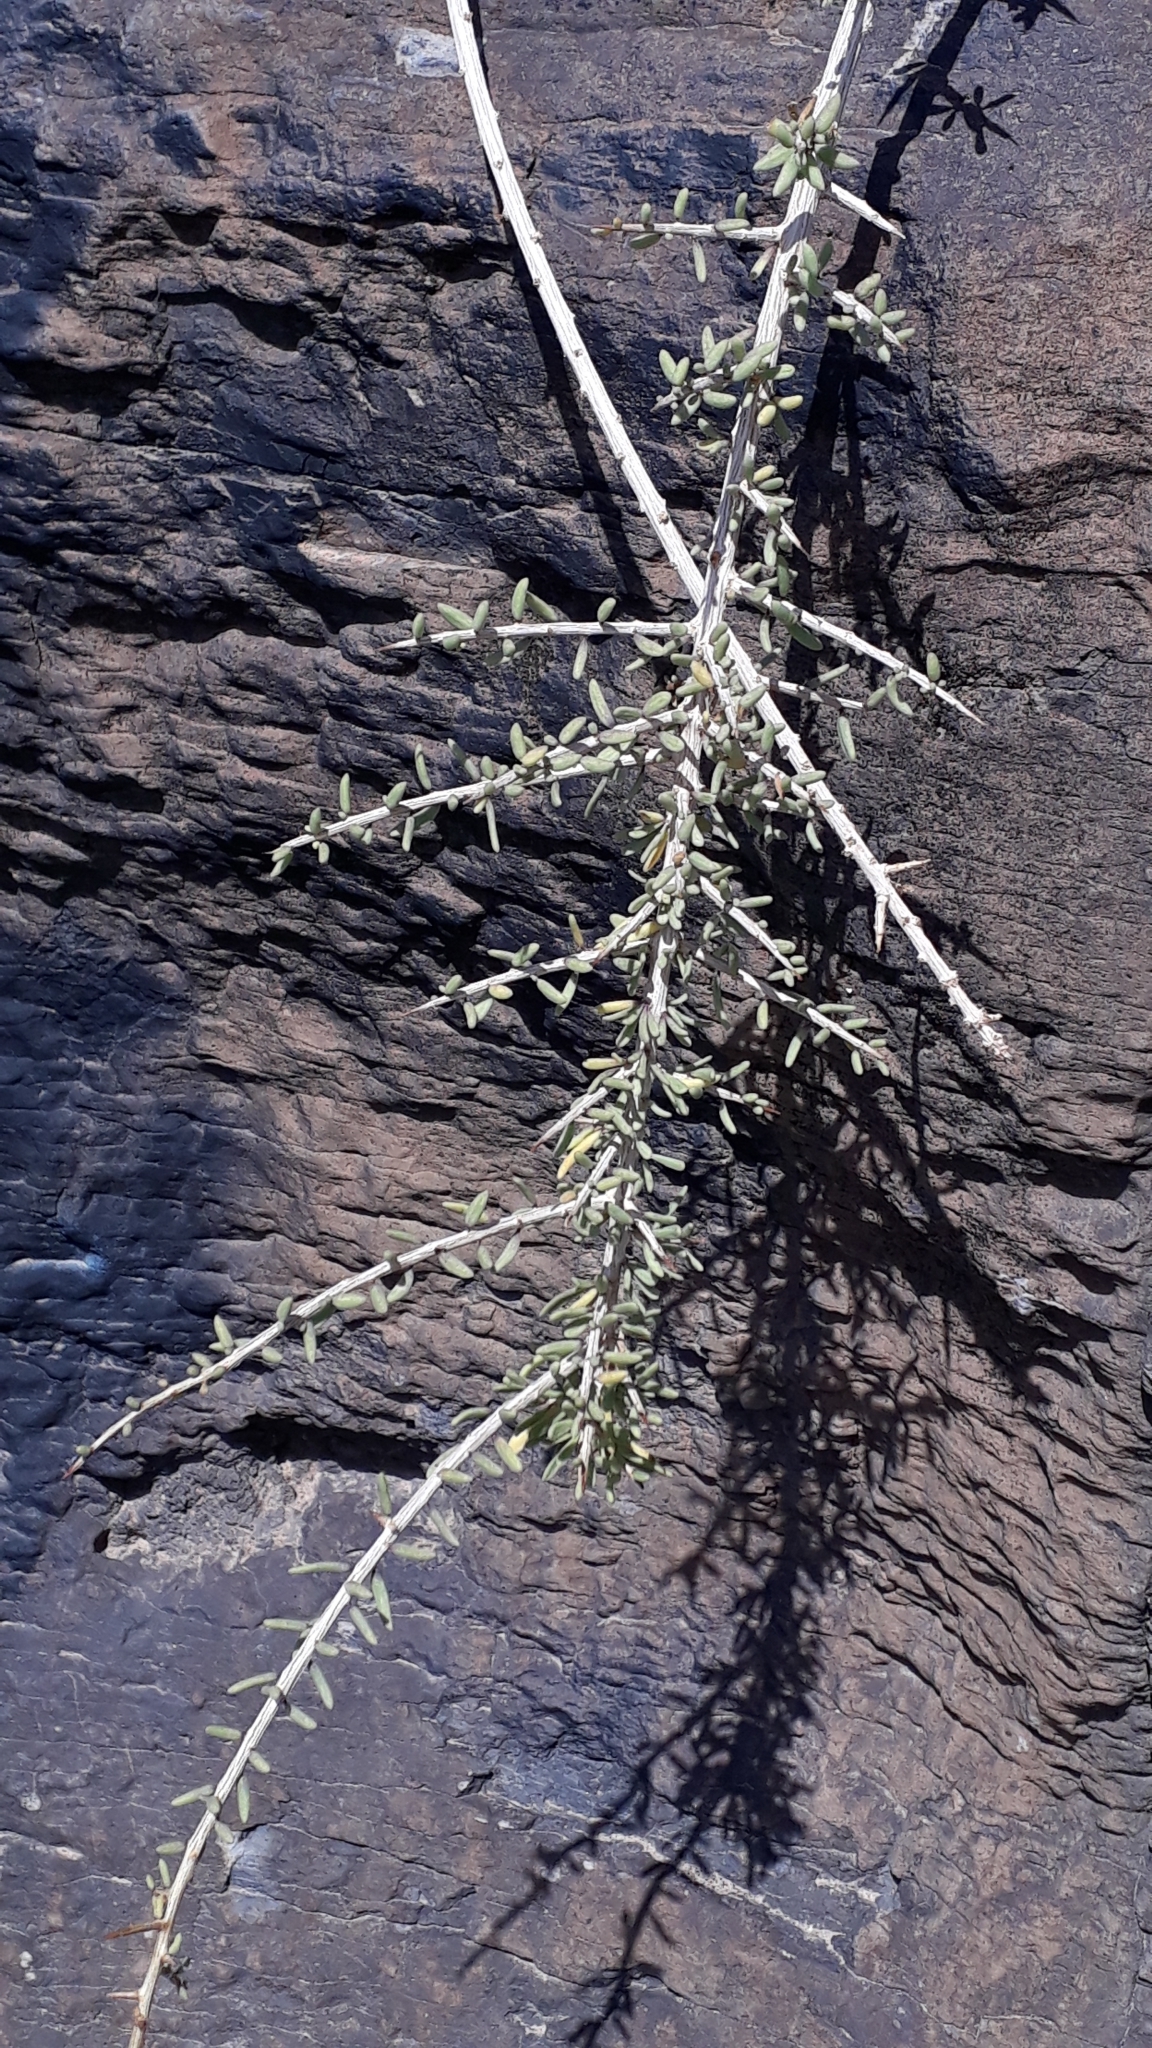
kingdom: Plantae
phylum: Tracheophyta
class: Magnoliopsida
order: Solanales
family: Solanaceae
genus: Lycium
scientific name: Lycium intricatum
